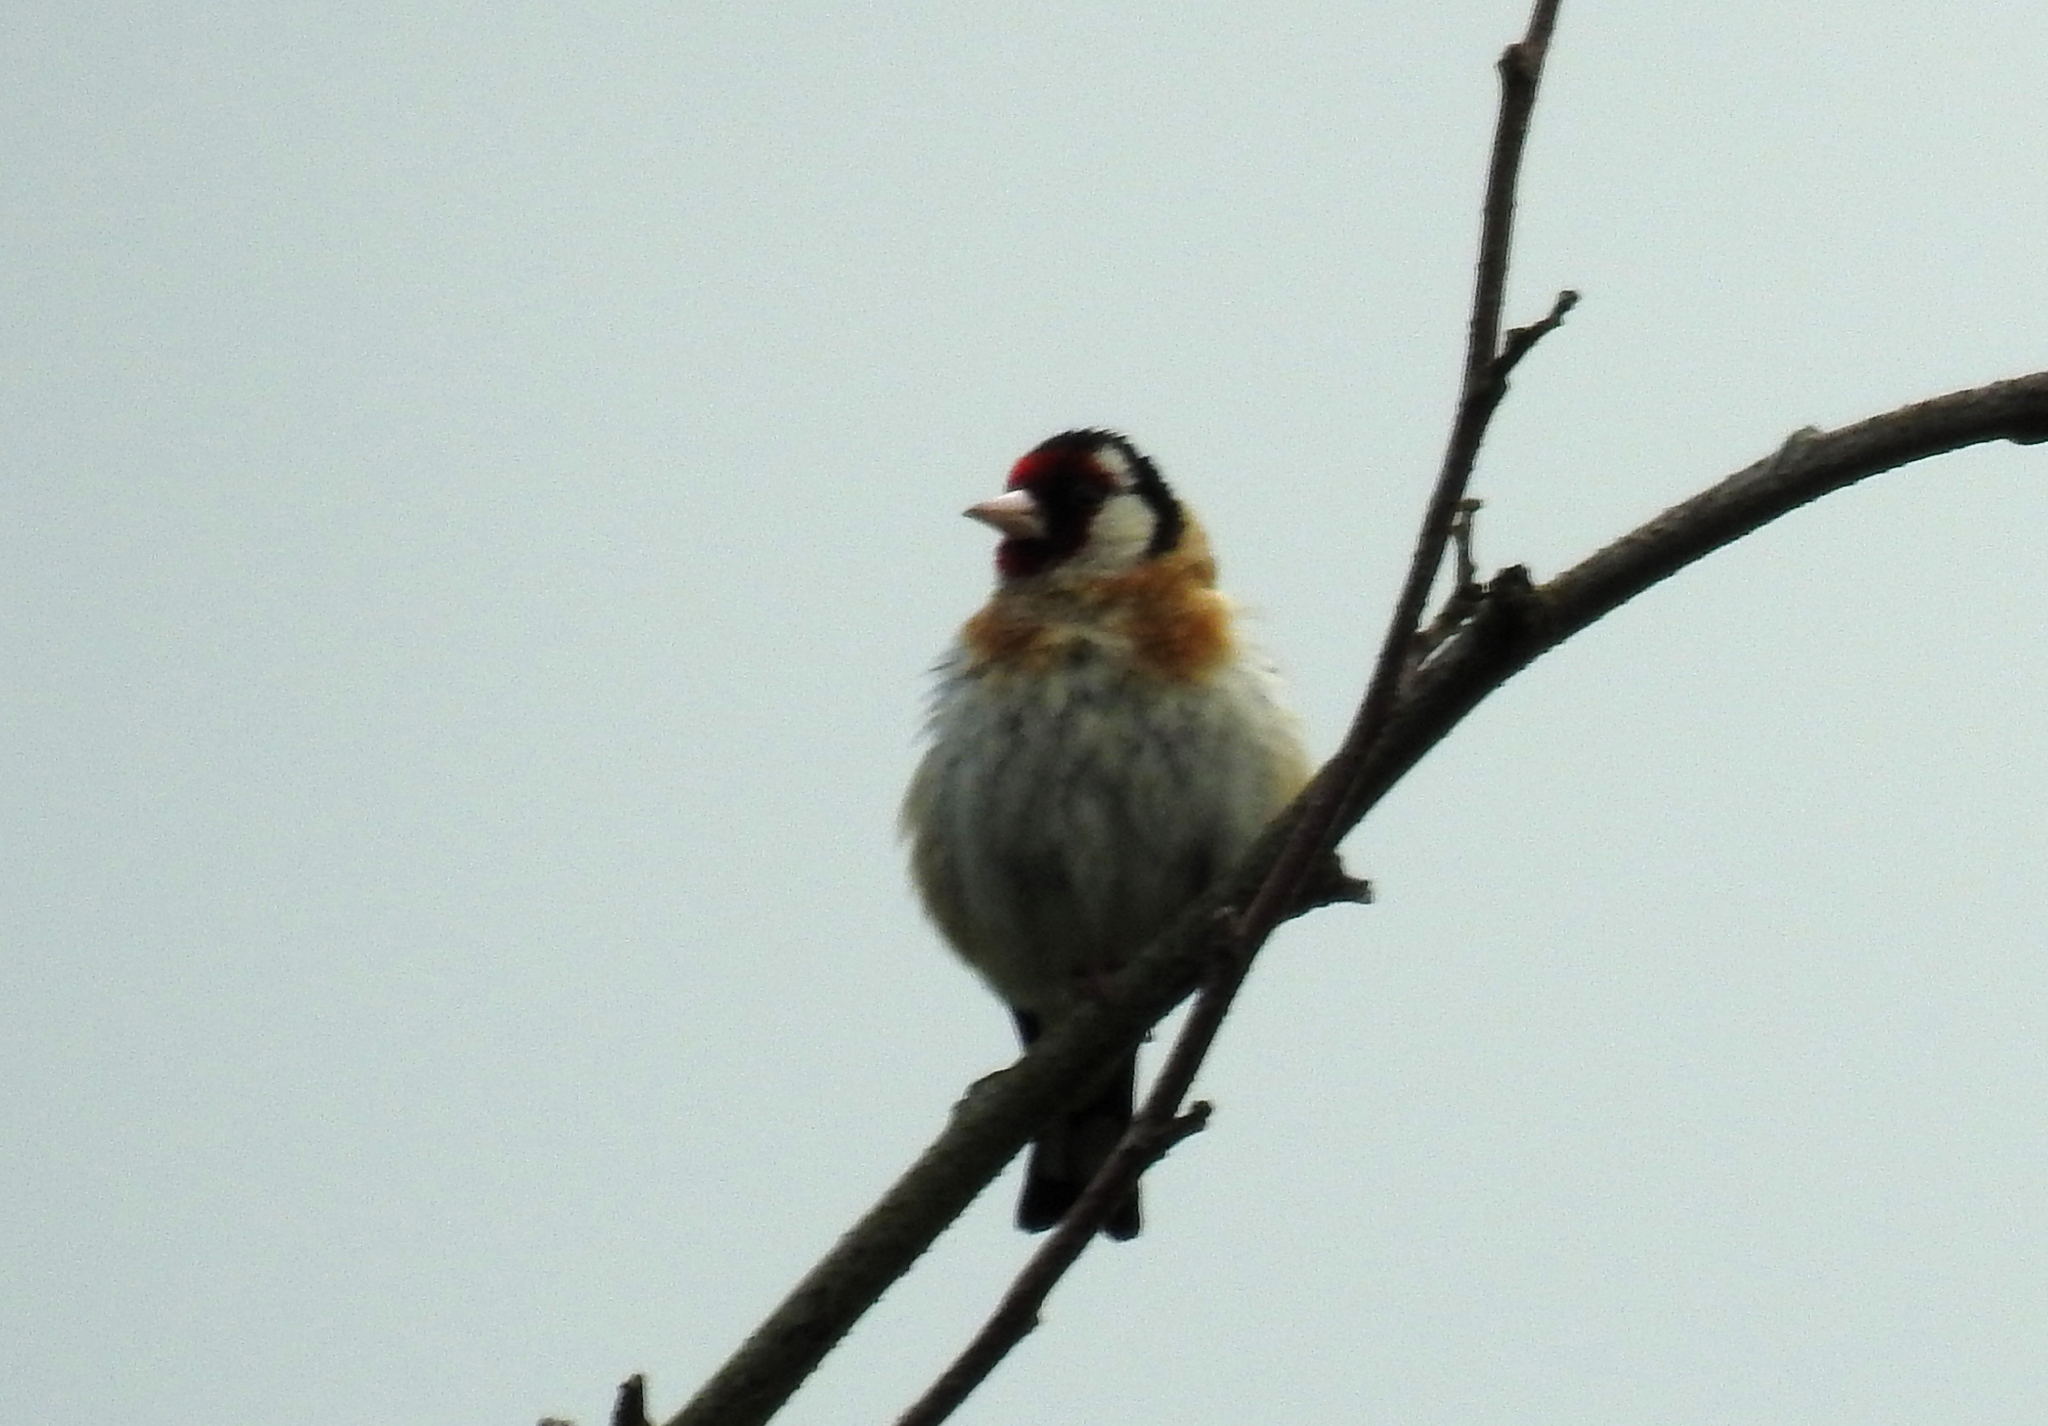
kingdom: Animalia
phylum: Chordata
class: Aves
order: Passeriformes
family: Fringillidae
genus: Carduelis
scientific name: Carduelis carduelis
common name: European goldfinch
